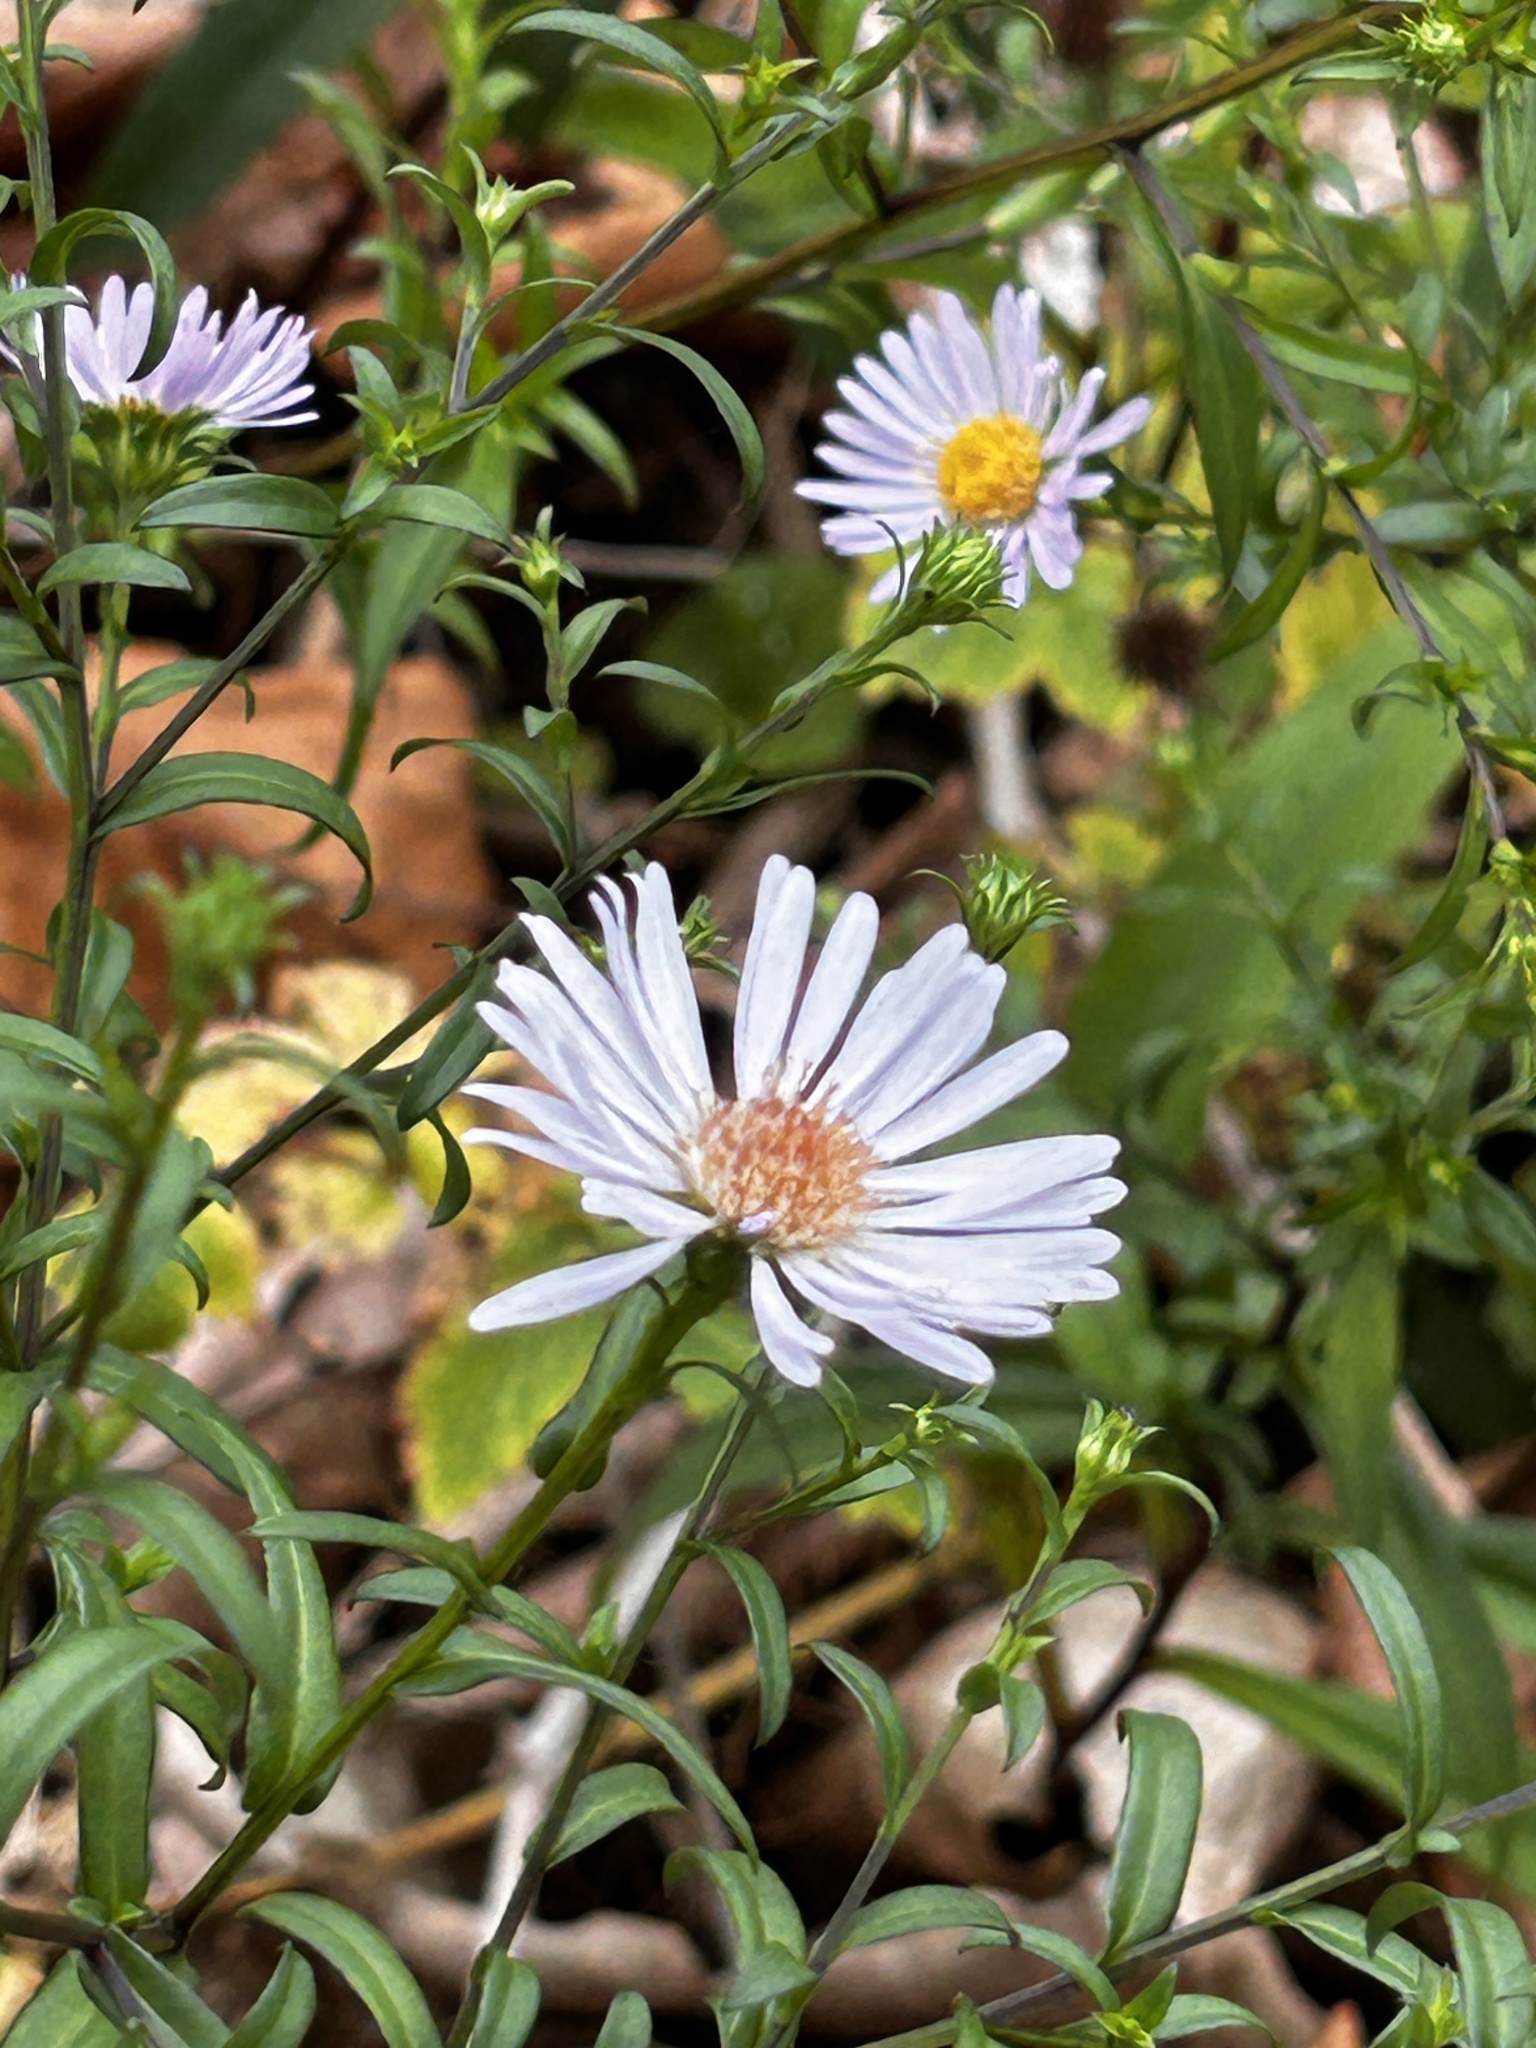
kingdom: Plantae
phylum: Tracheophyta
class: Magnoliopsida
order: Asterales
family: Asteraceae
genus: Symphyotrichum
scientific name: Symphyotrichum novi-belgii
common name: Michaelmas daisy
